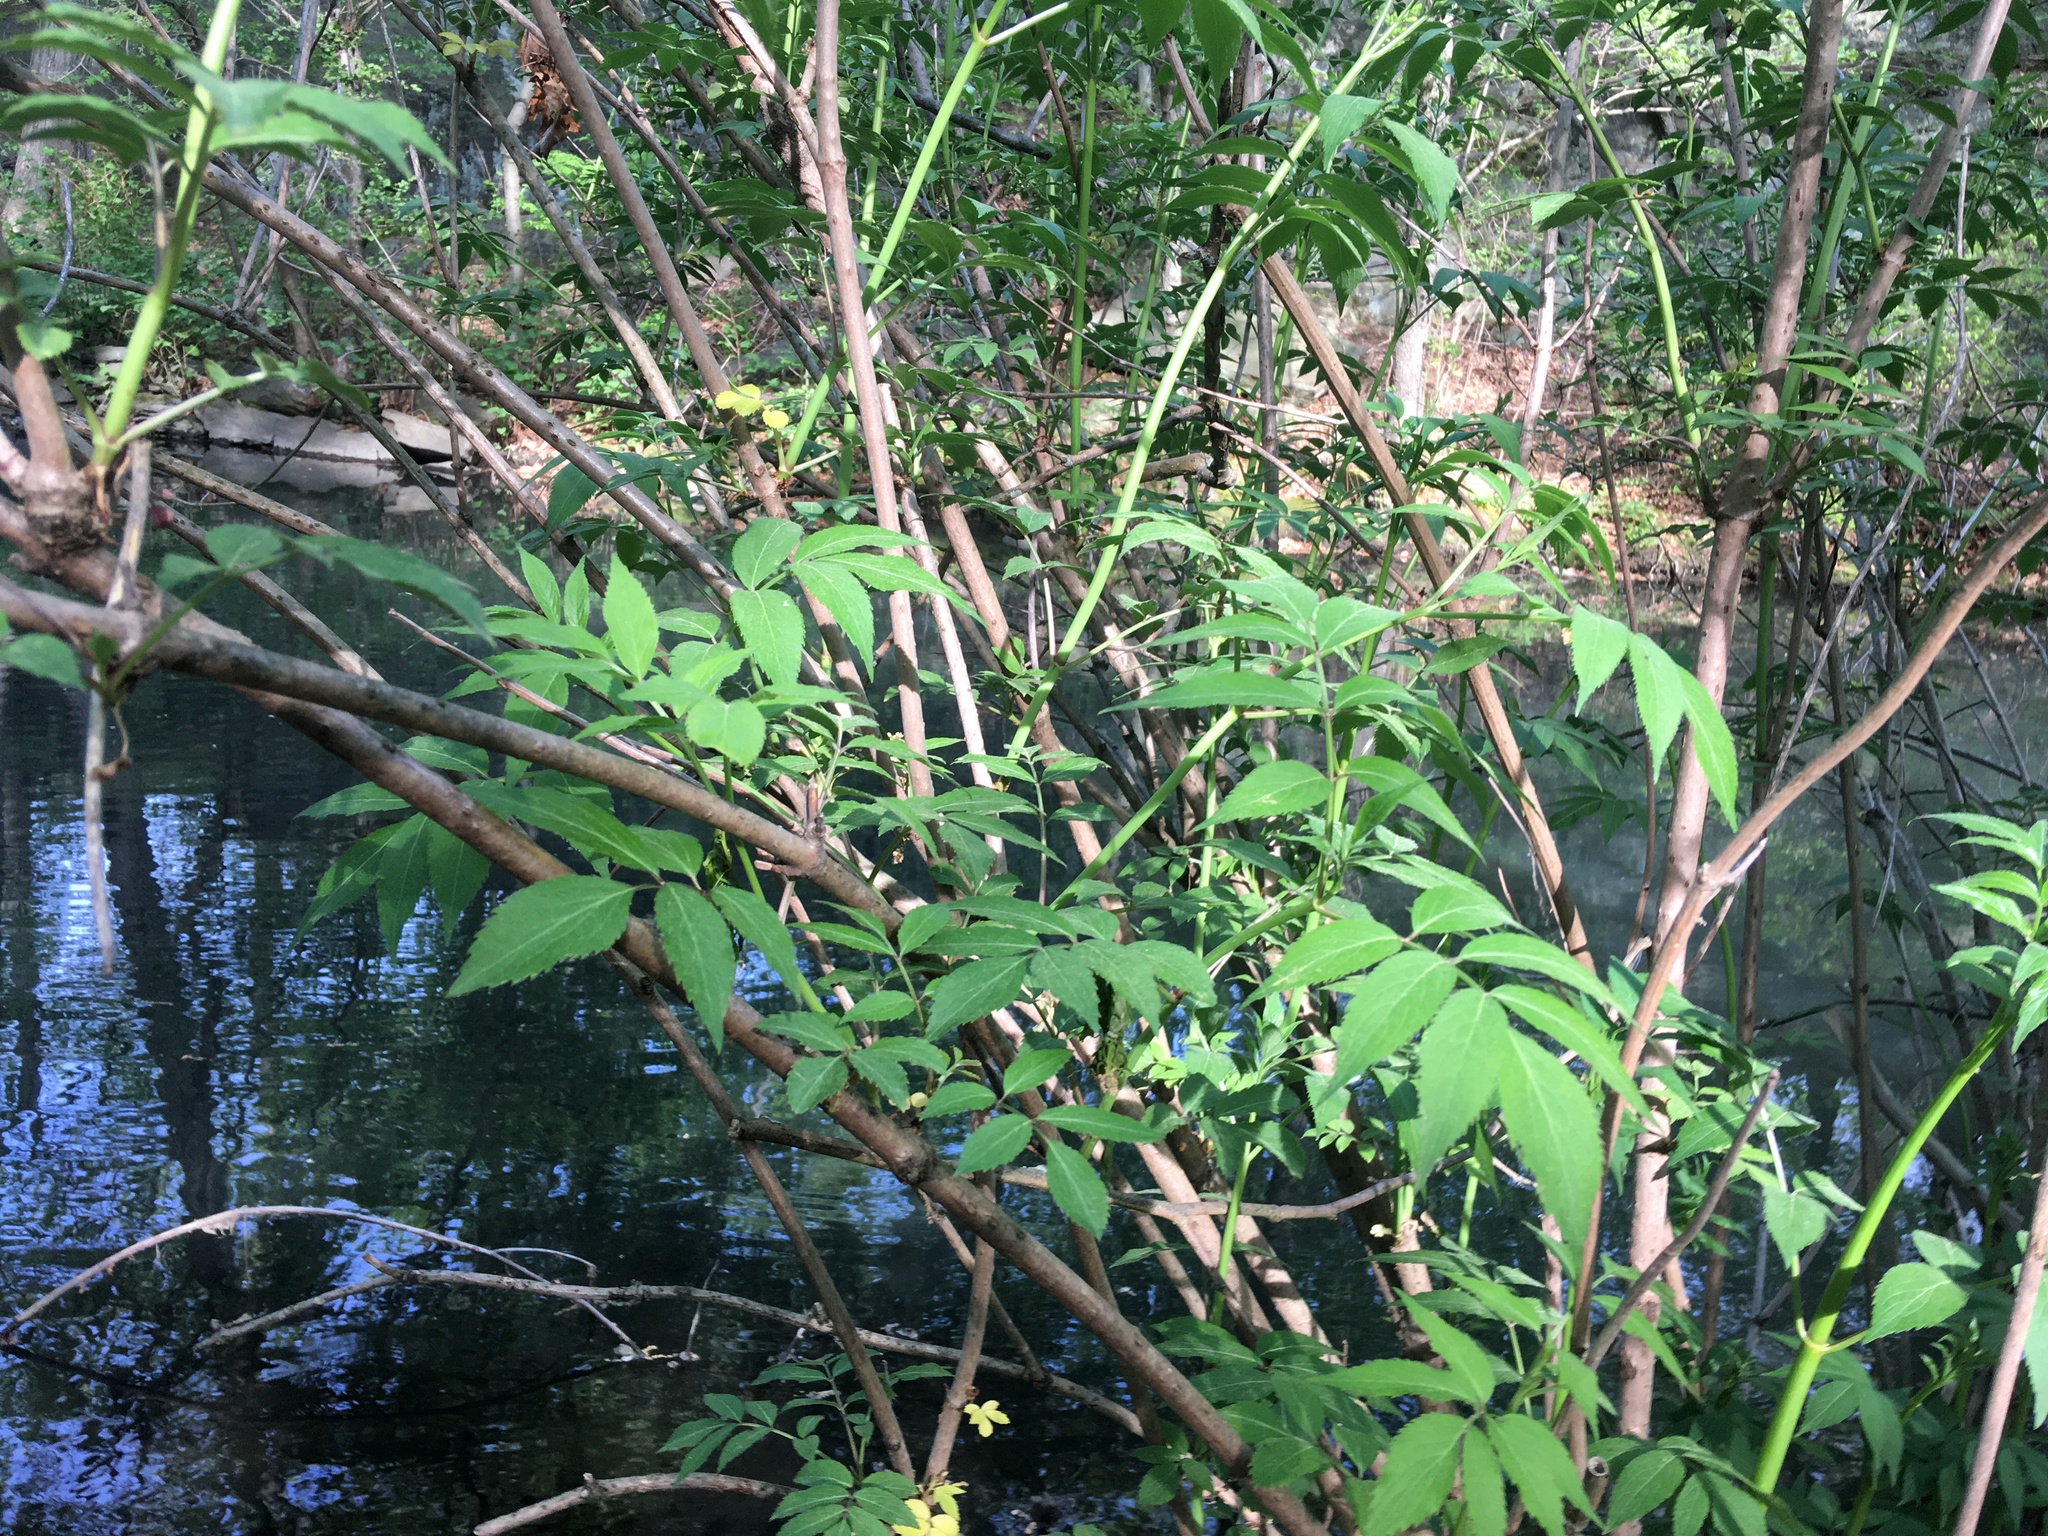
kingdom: Plantae
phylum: Tracheophyta
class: Magnoliopsida
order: Dipsacales
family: Viburnaceae
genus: Sambucus
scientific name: Sambucus canadensis
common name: American elder
